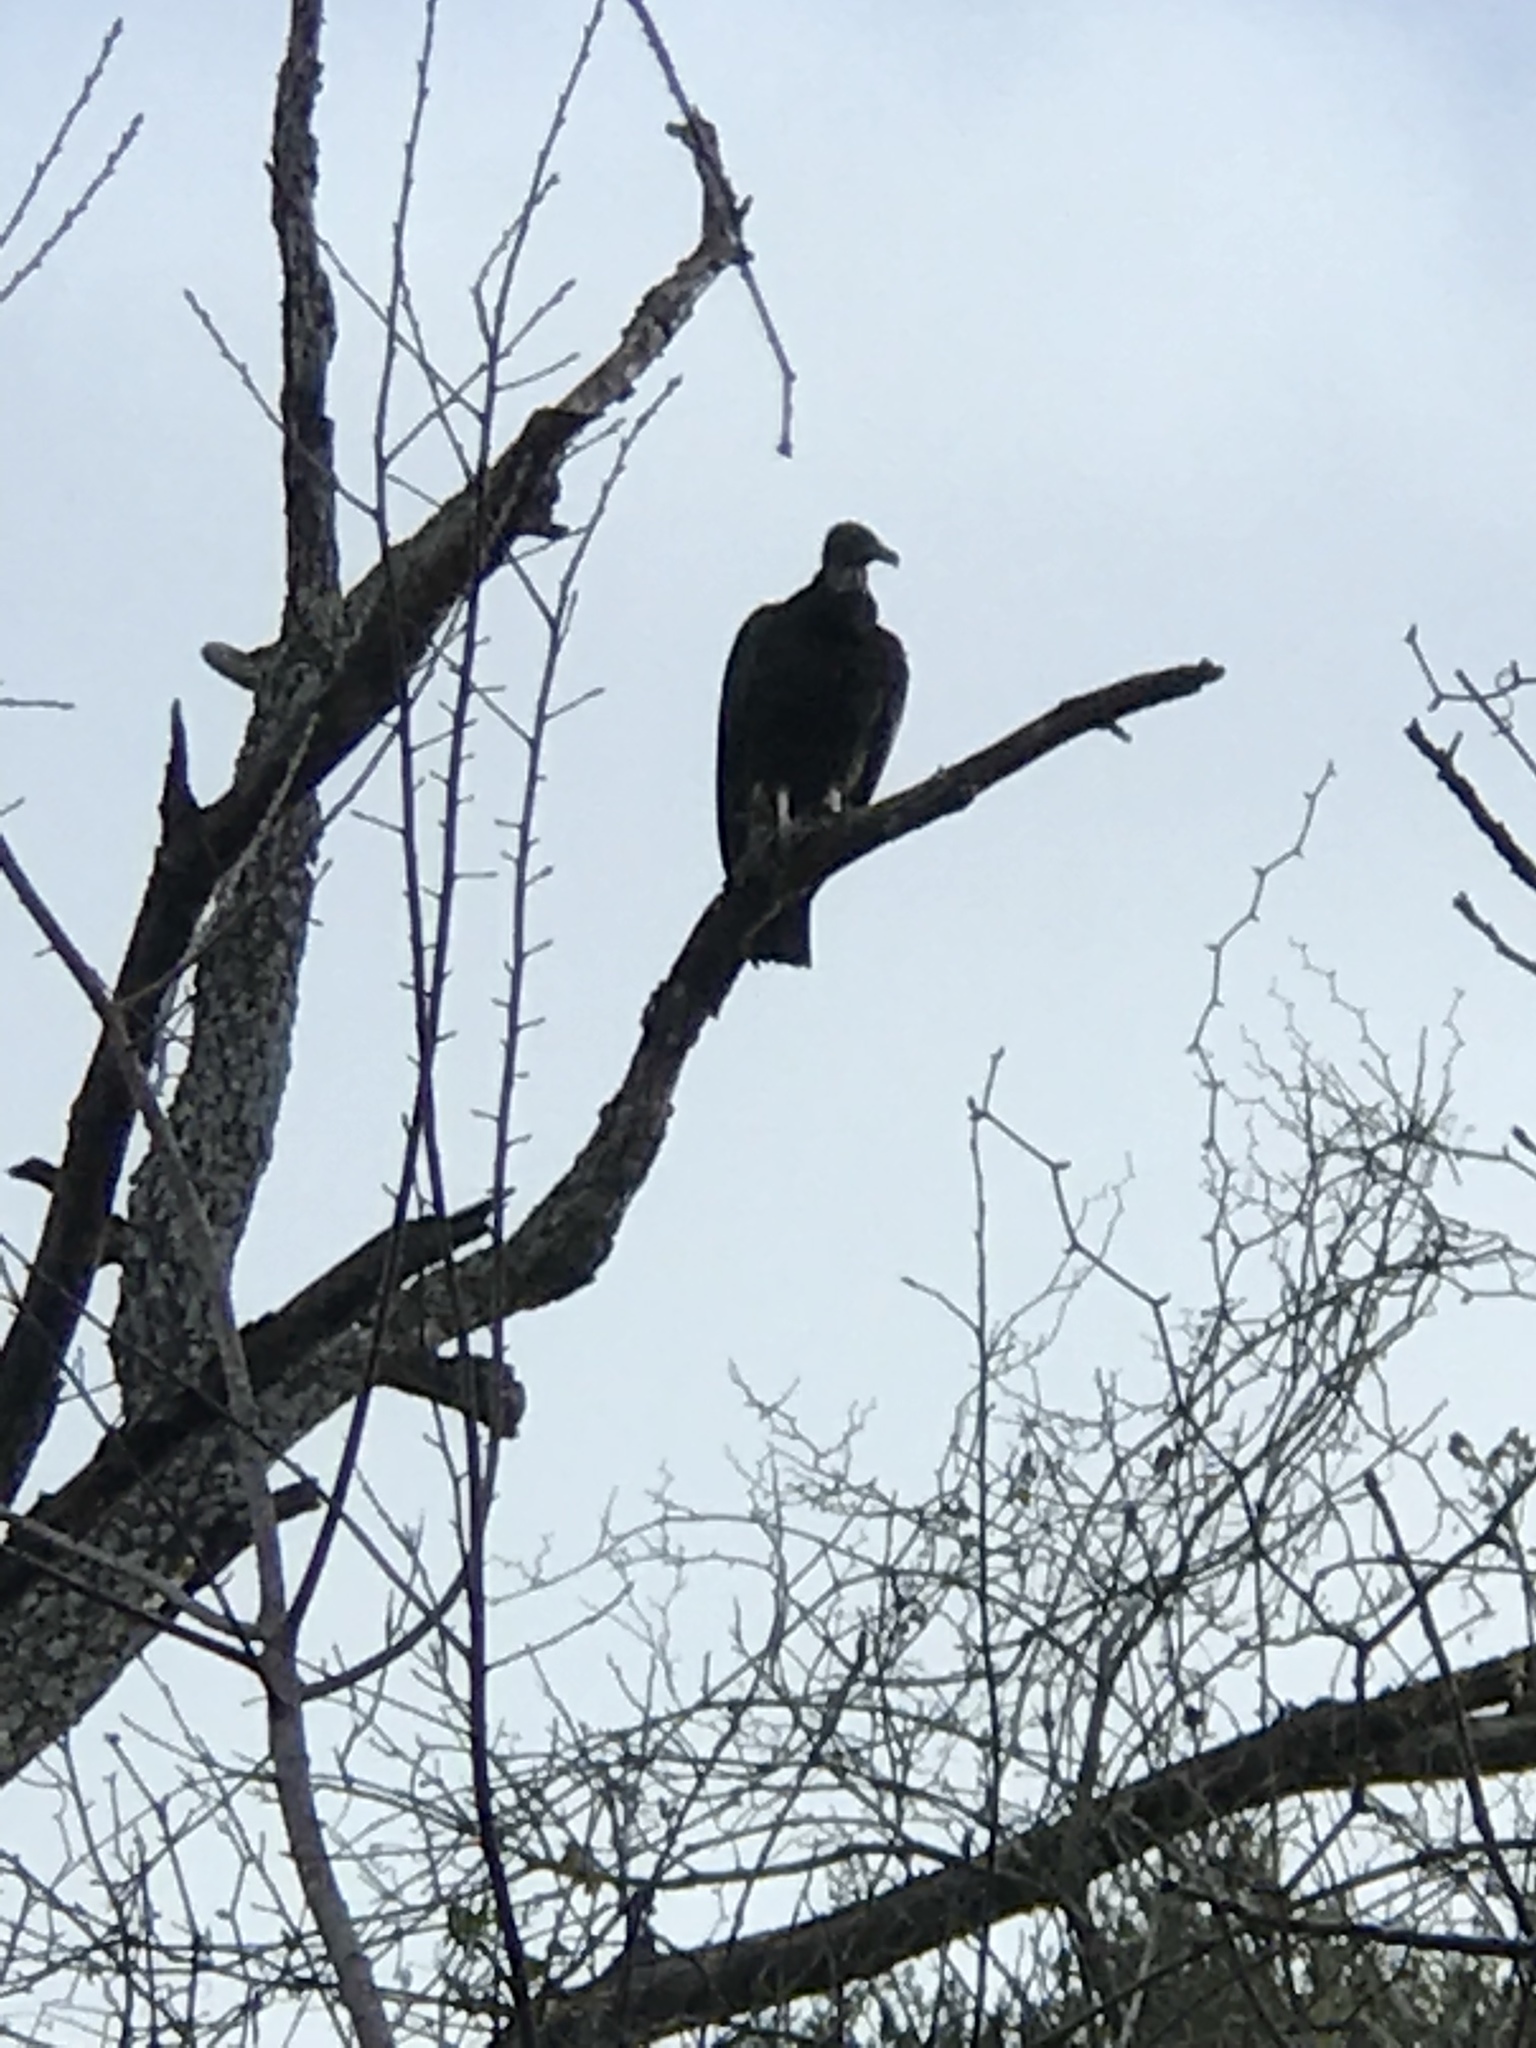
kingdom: Animalia
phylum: Chordata
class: Aves
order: Accipitriformes
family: Cathartidae
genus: Coragyps
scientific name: Coragyps atratus
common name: Black vulture
